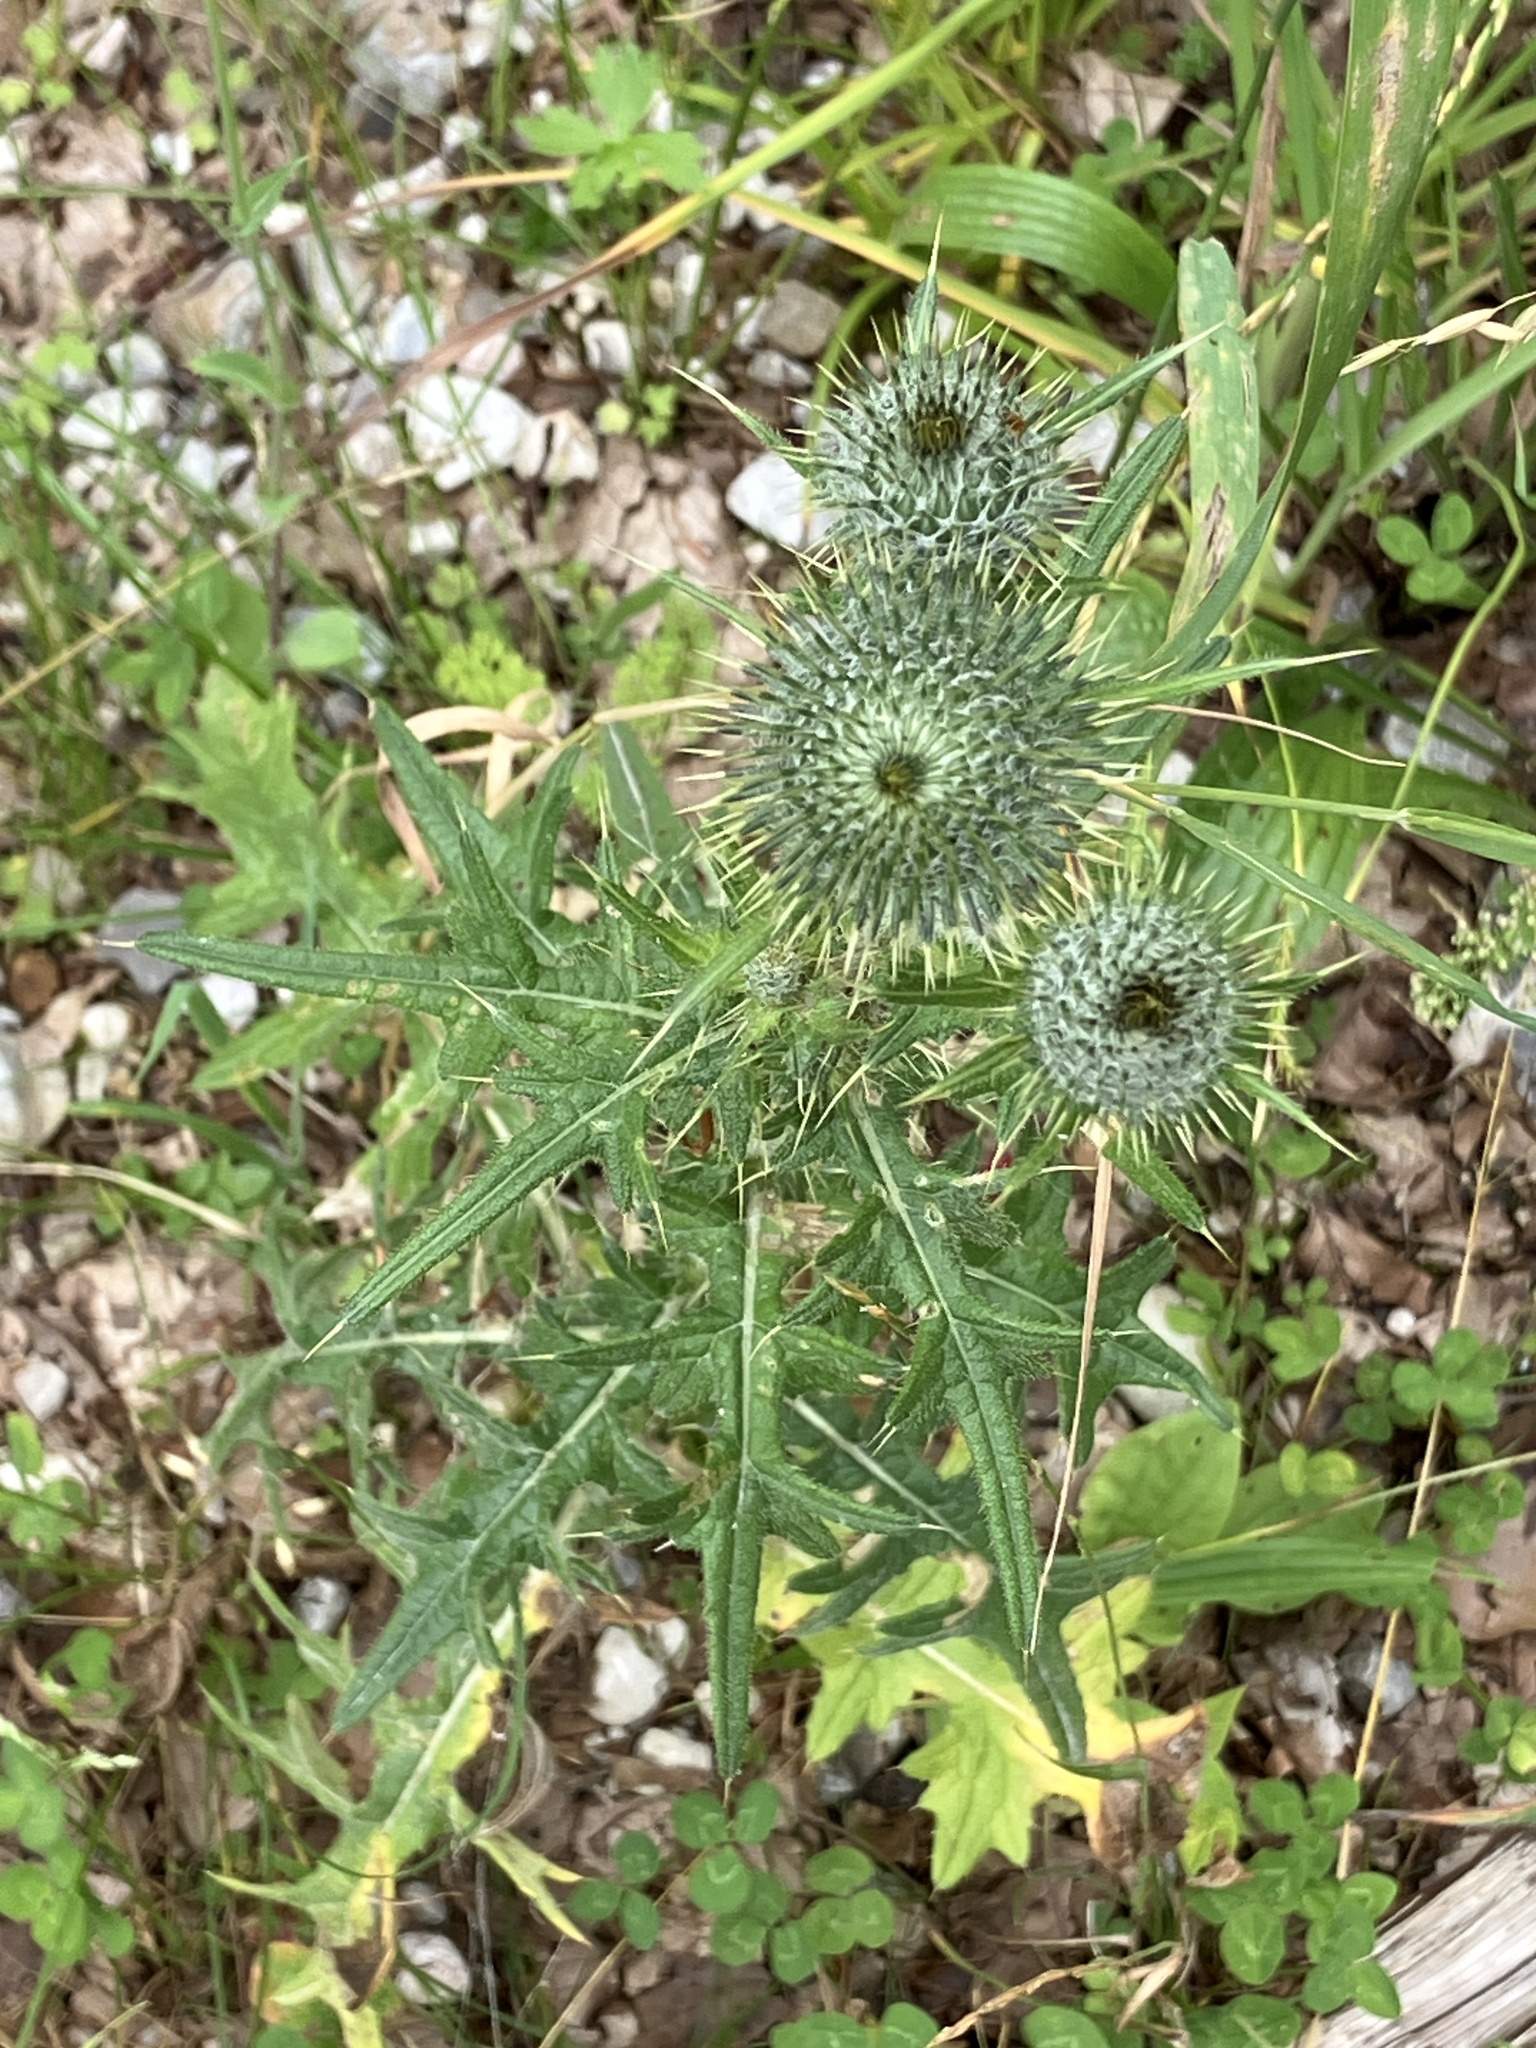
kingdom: Plantae
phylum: Tracheophyta
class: Magnoliopsida
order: Asterales
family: Asteraceae
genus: Cirsium
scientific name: Cirsium vulgare
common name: Bull thistle
